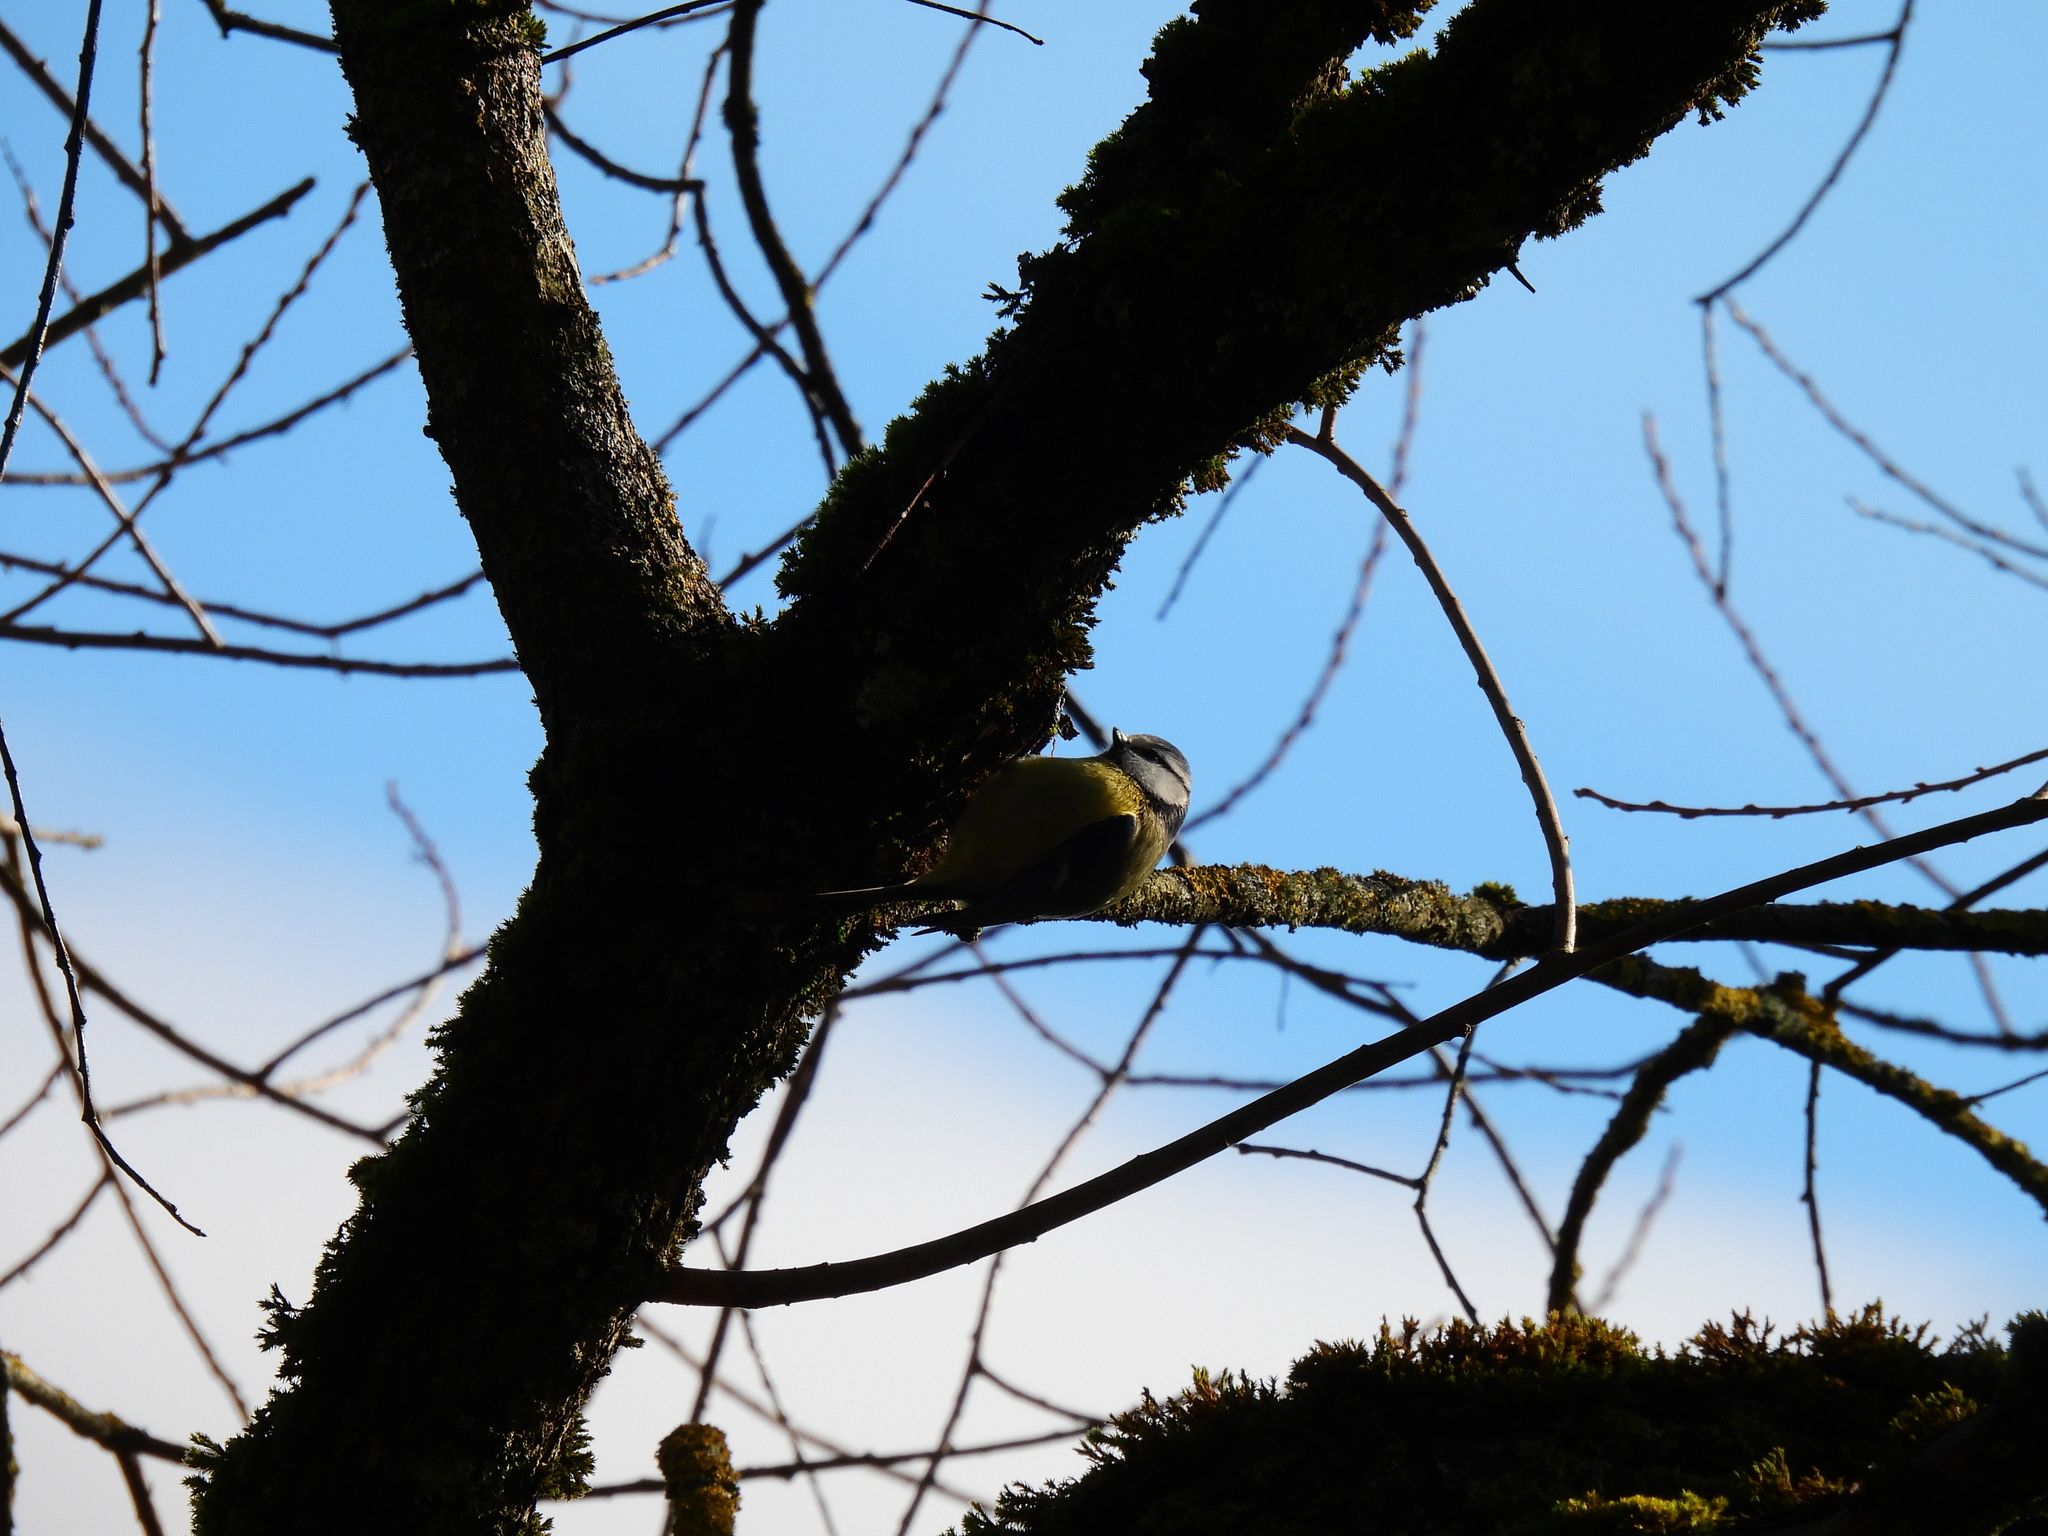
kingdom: Animalia
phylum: Chordata
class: Aves
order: Passeriformes
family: Paridae
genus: Cyanistes
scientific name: Cyanistes caeruleus
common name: Eurasian blue tit
